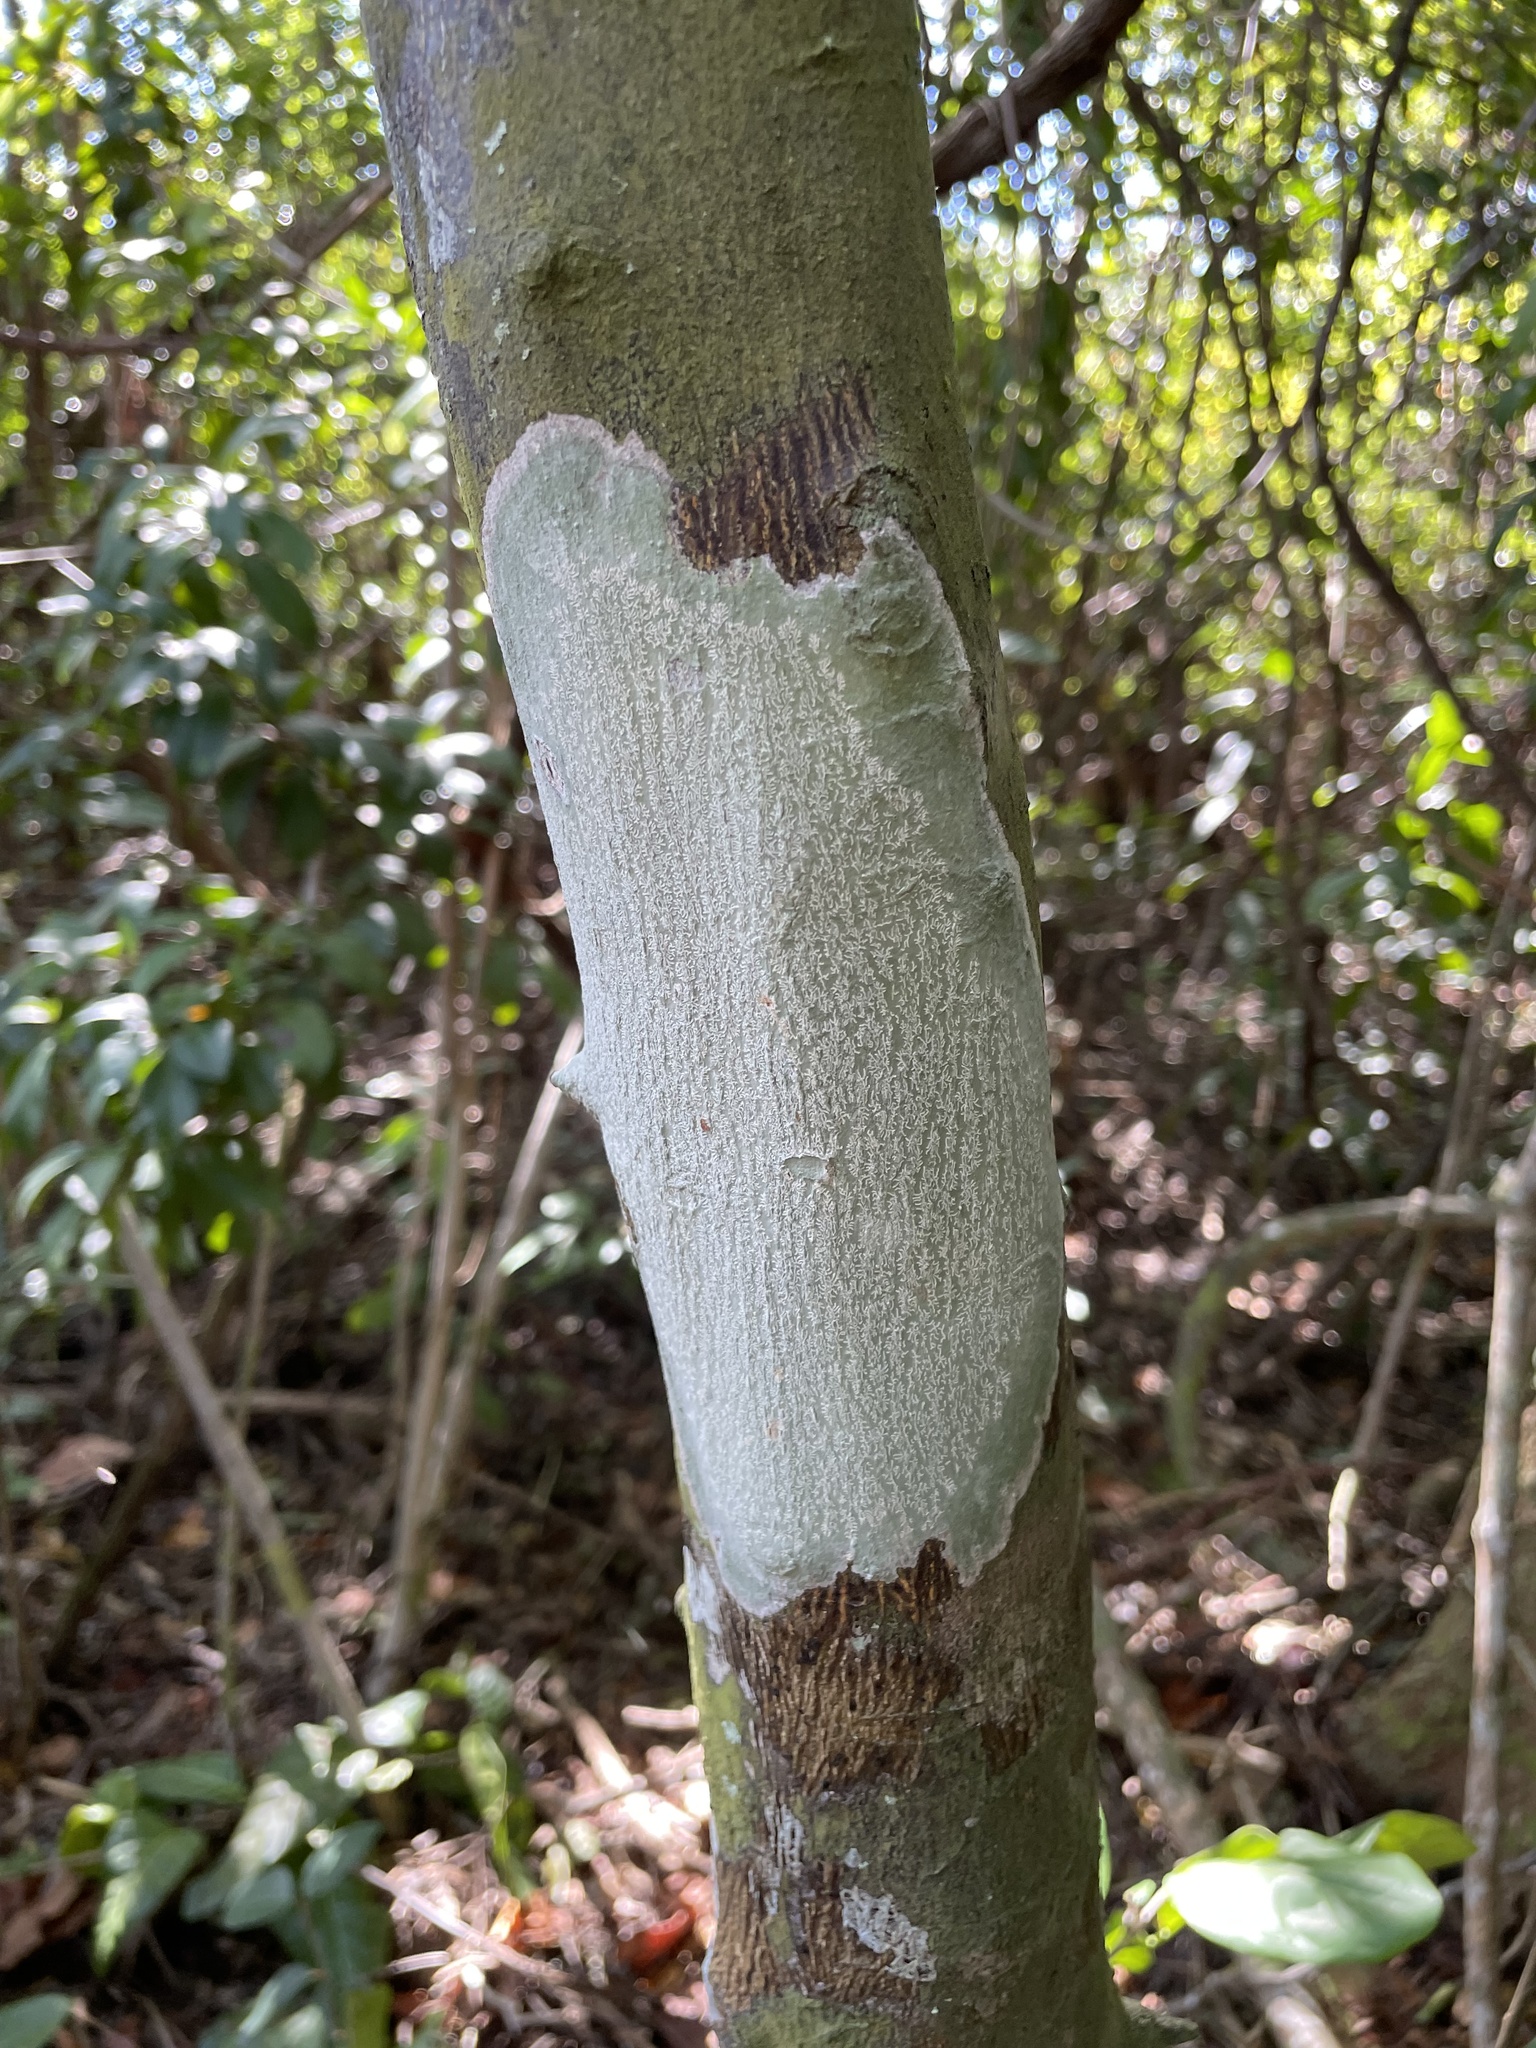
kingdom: Fungi
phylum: Ascomycota
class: Arthoniomycetes
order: Arthoniales
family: Arthoniaceae
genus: Cryptothecia
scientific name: Cryptothecia striata
